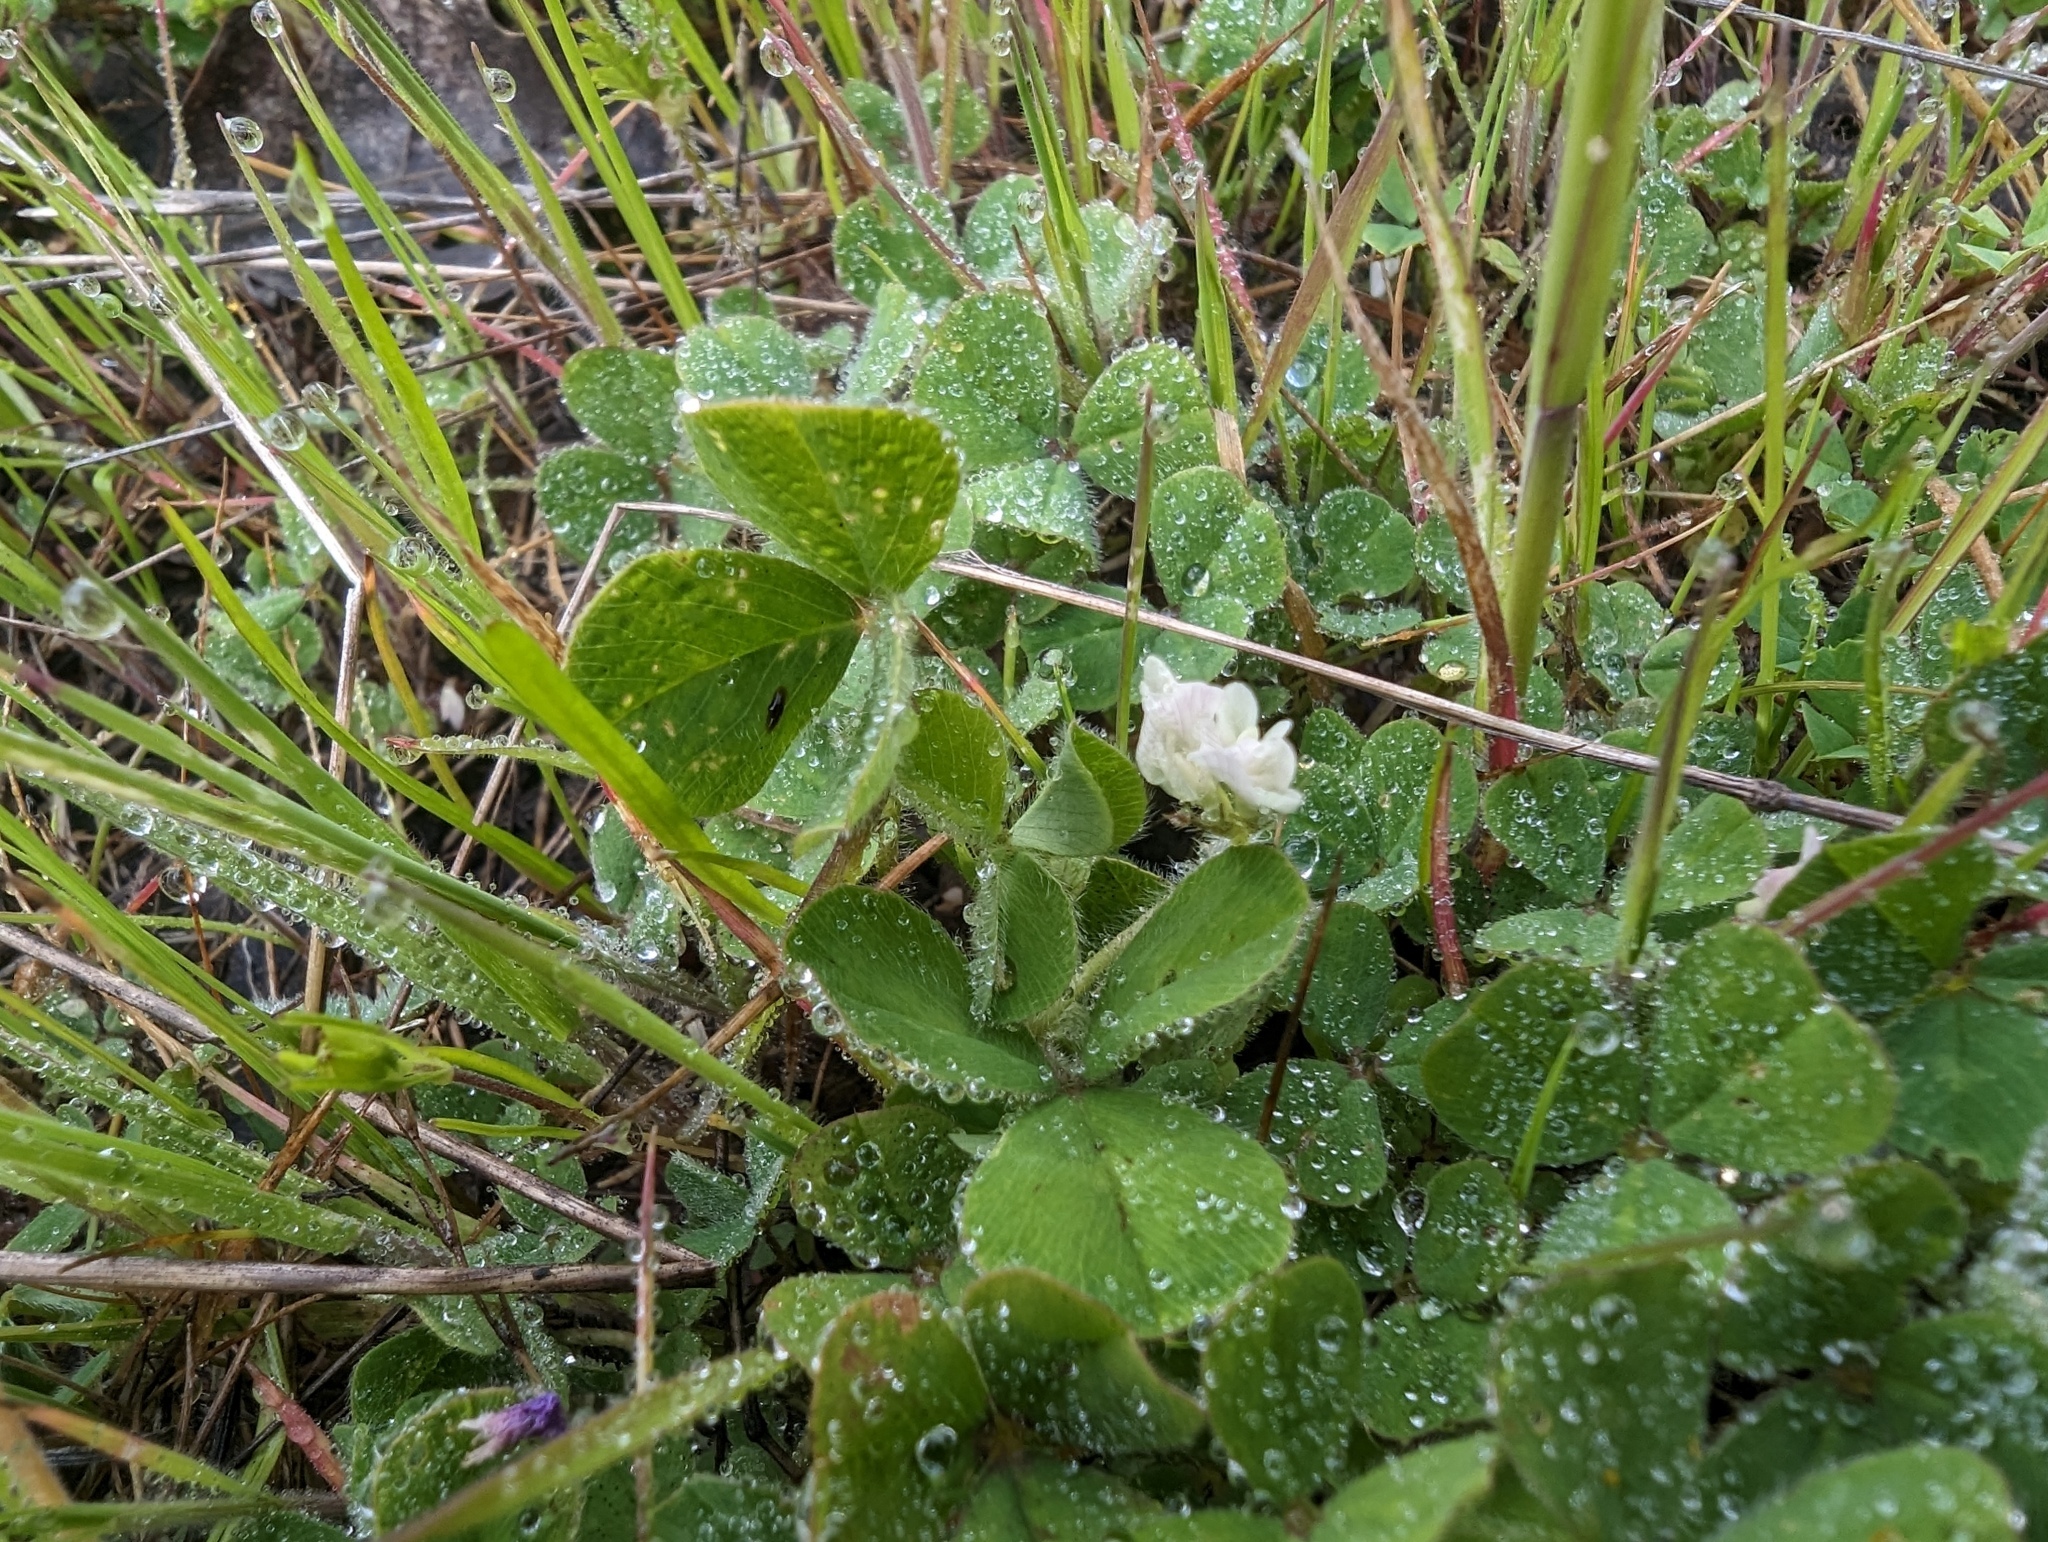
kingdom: Plantae
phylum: Tracheophyta
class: Magnoliopsida
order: Fabales
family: Fabaceae
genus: Trifolium
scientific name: Trifolium subterraneum
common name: Subterranean clover
